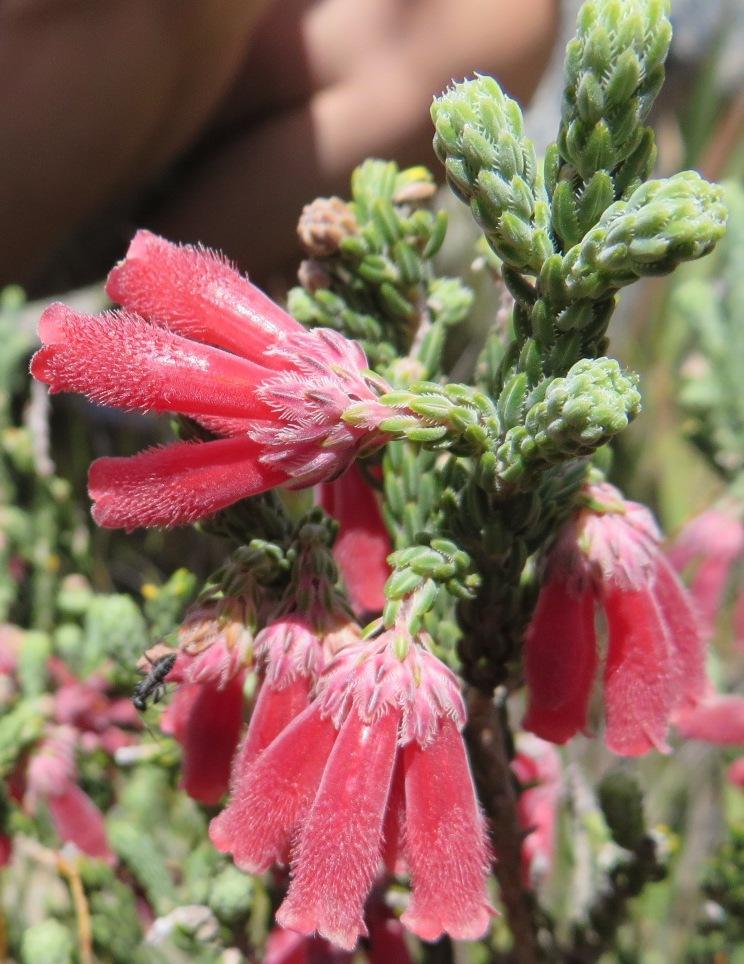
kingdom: Plantae
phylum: Tracheophyta
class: Magnoliopsida
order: Ericales
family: Ericaceae
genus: Erica
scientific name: Erica strigilifolia
